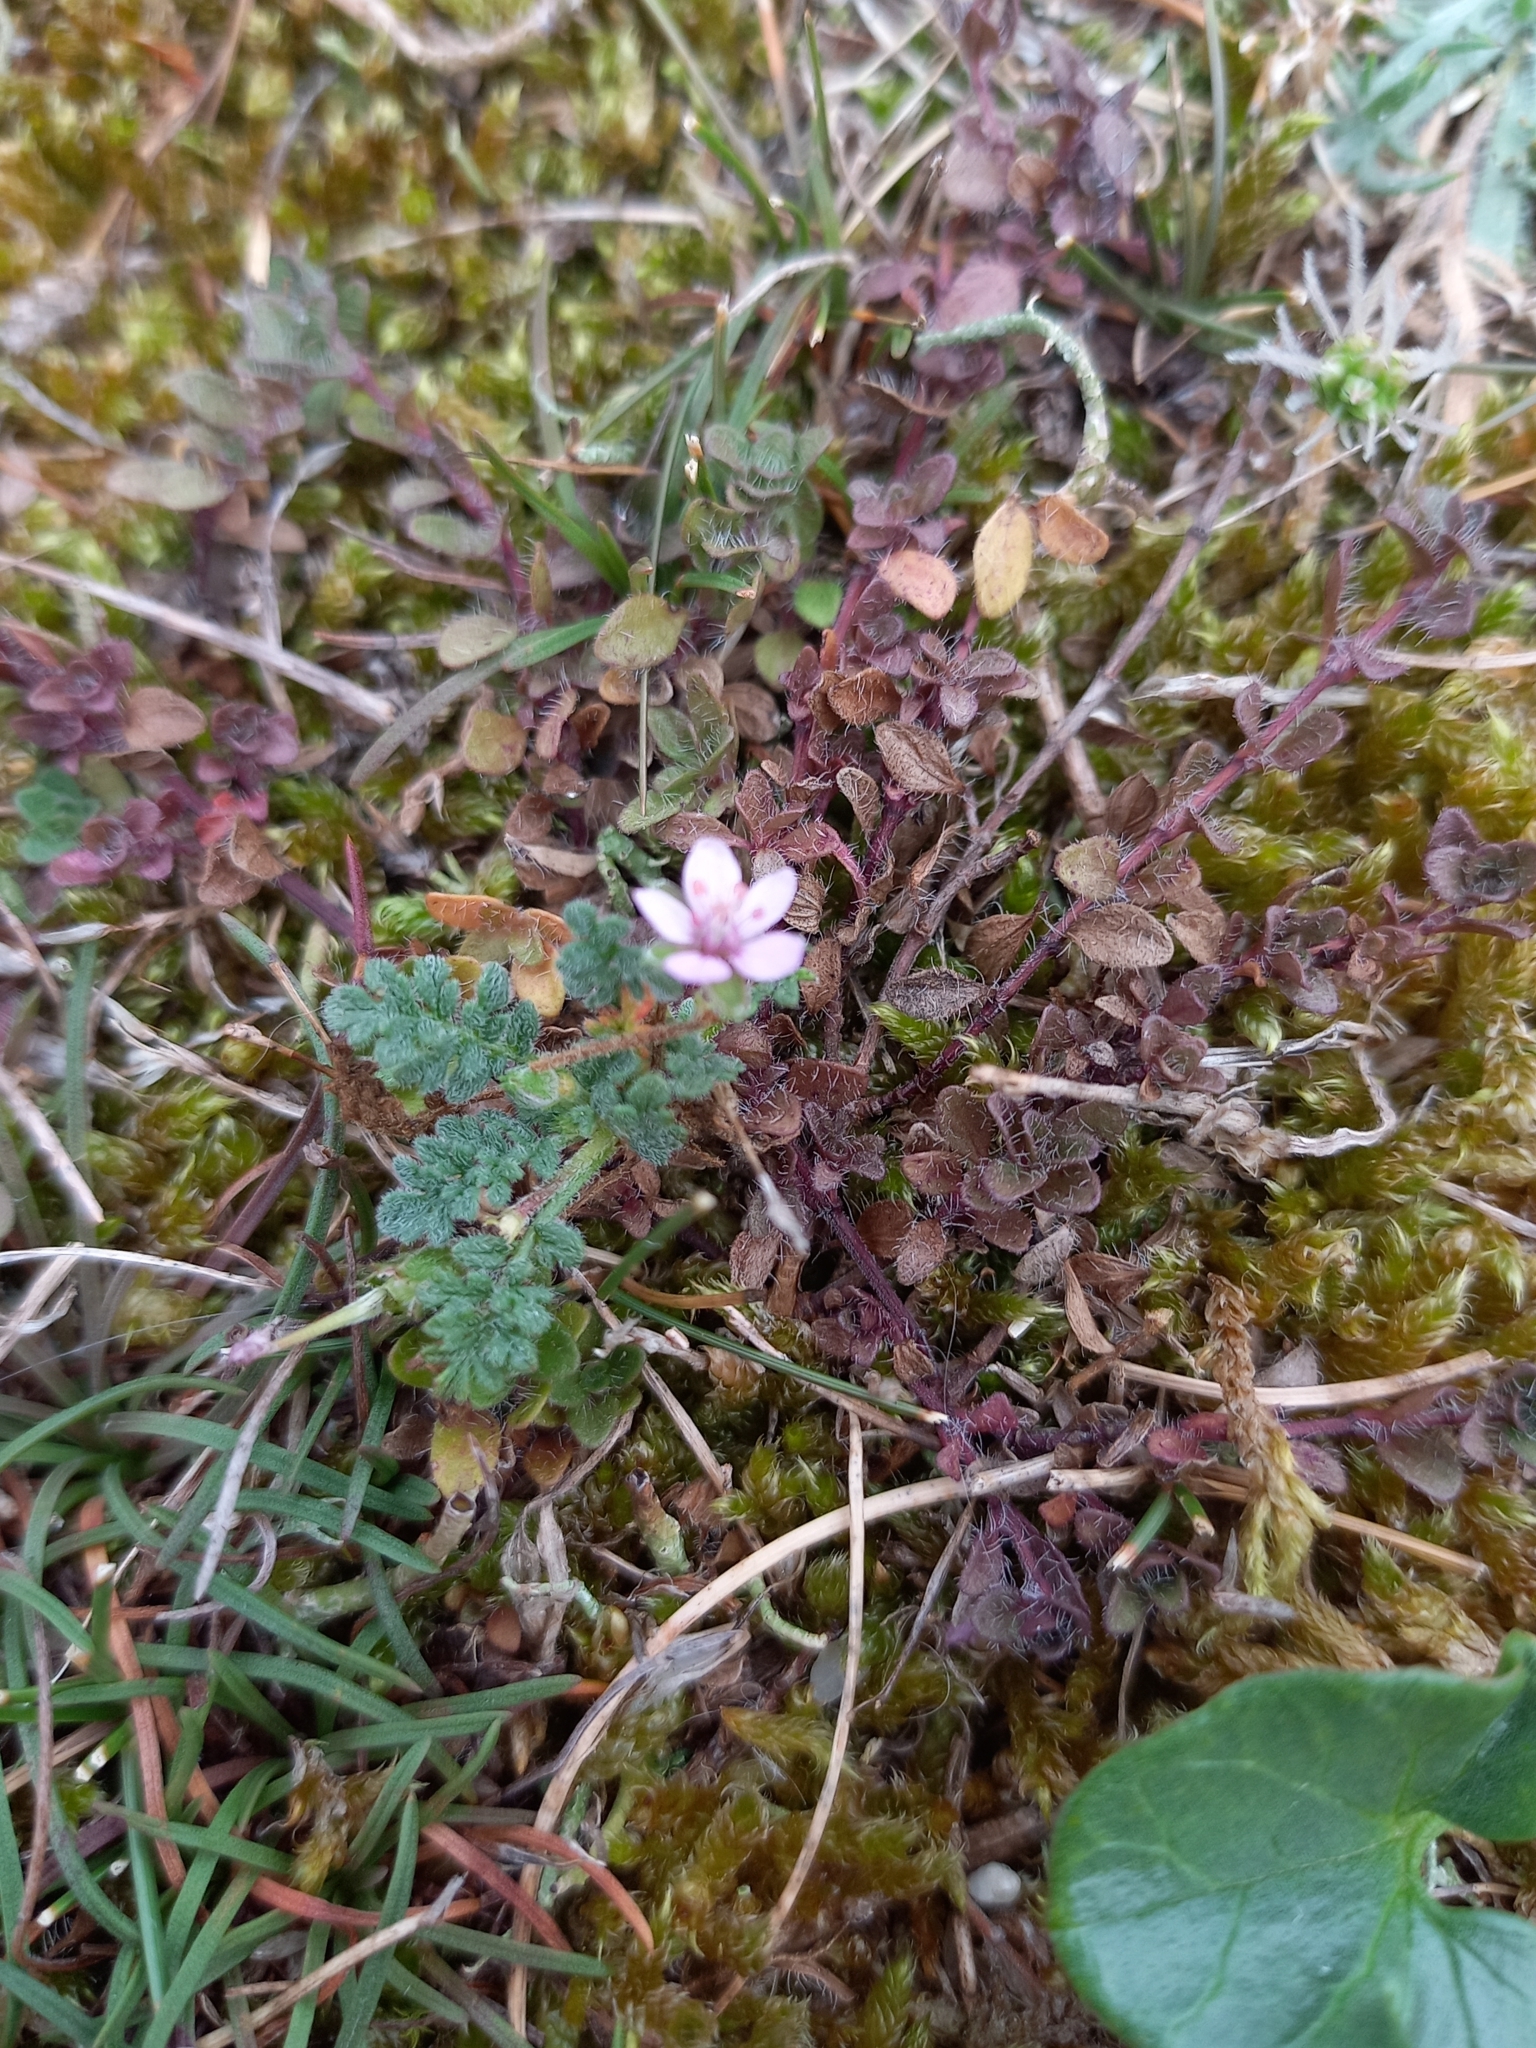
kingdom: Plantae
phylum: Tracheophyta
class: Magnoliopsida
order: Geraniales
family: Geraniaceae
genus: Erodium
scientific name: Erodium lebelii
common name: Sticky stork's-bill
